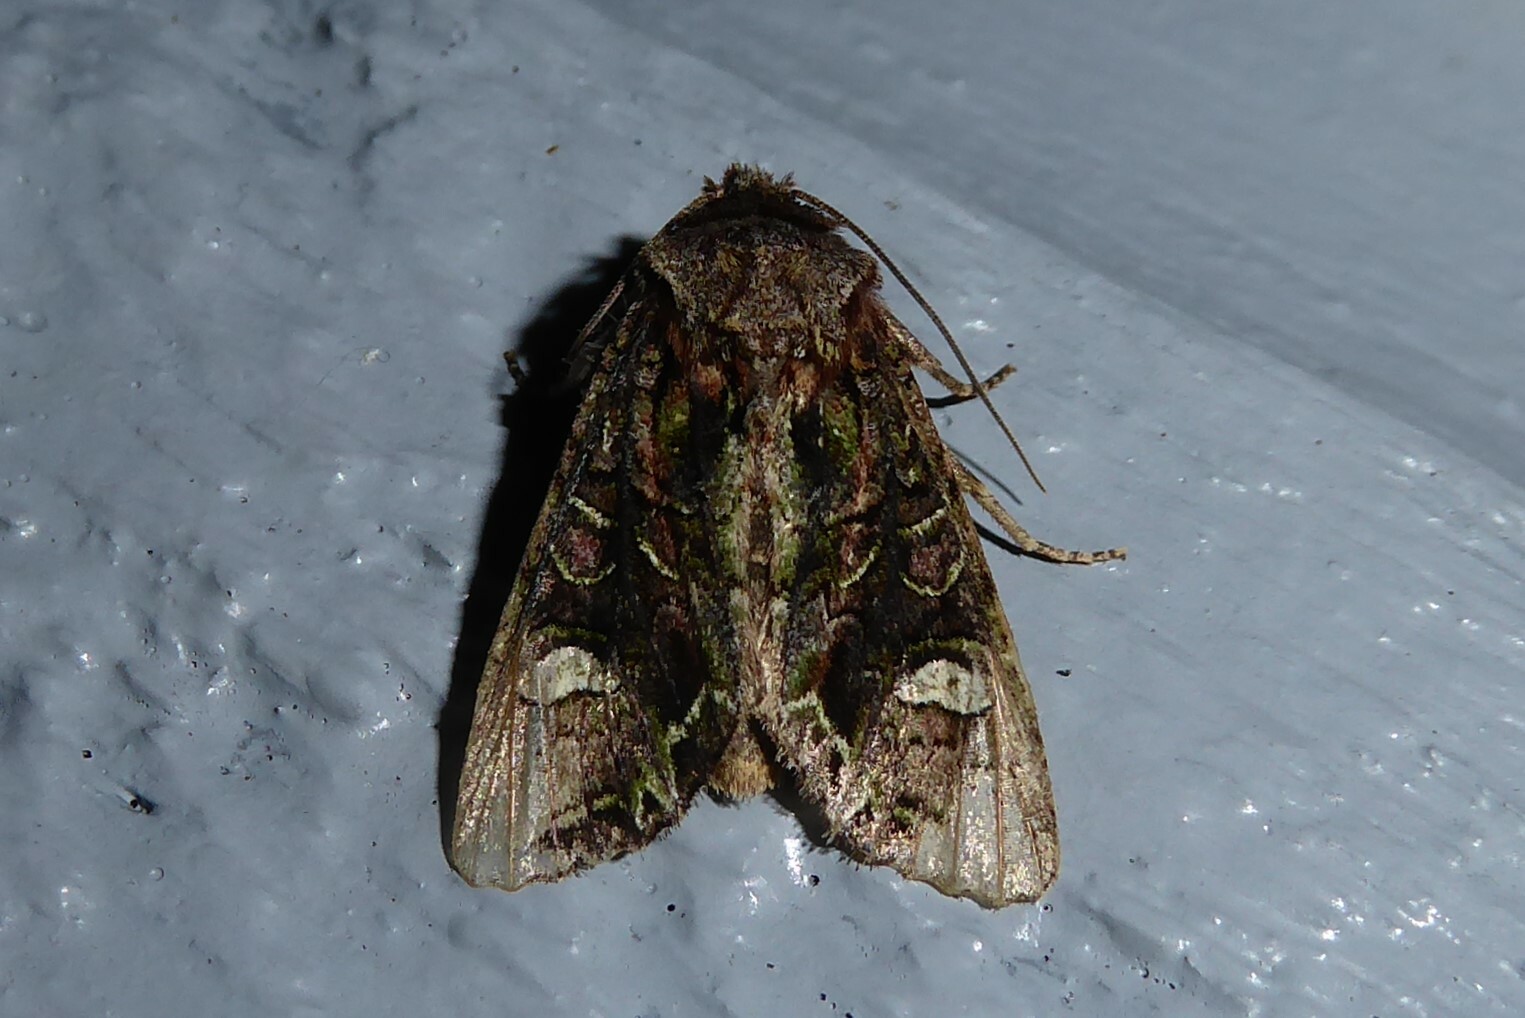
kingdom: Animalia
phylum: Arthropoda
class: Insecta
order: Lepidoptera
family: Noctuidae
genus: Ichneutica
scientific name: Ichneutica insignis
